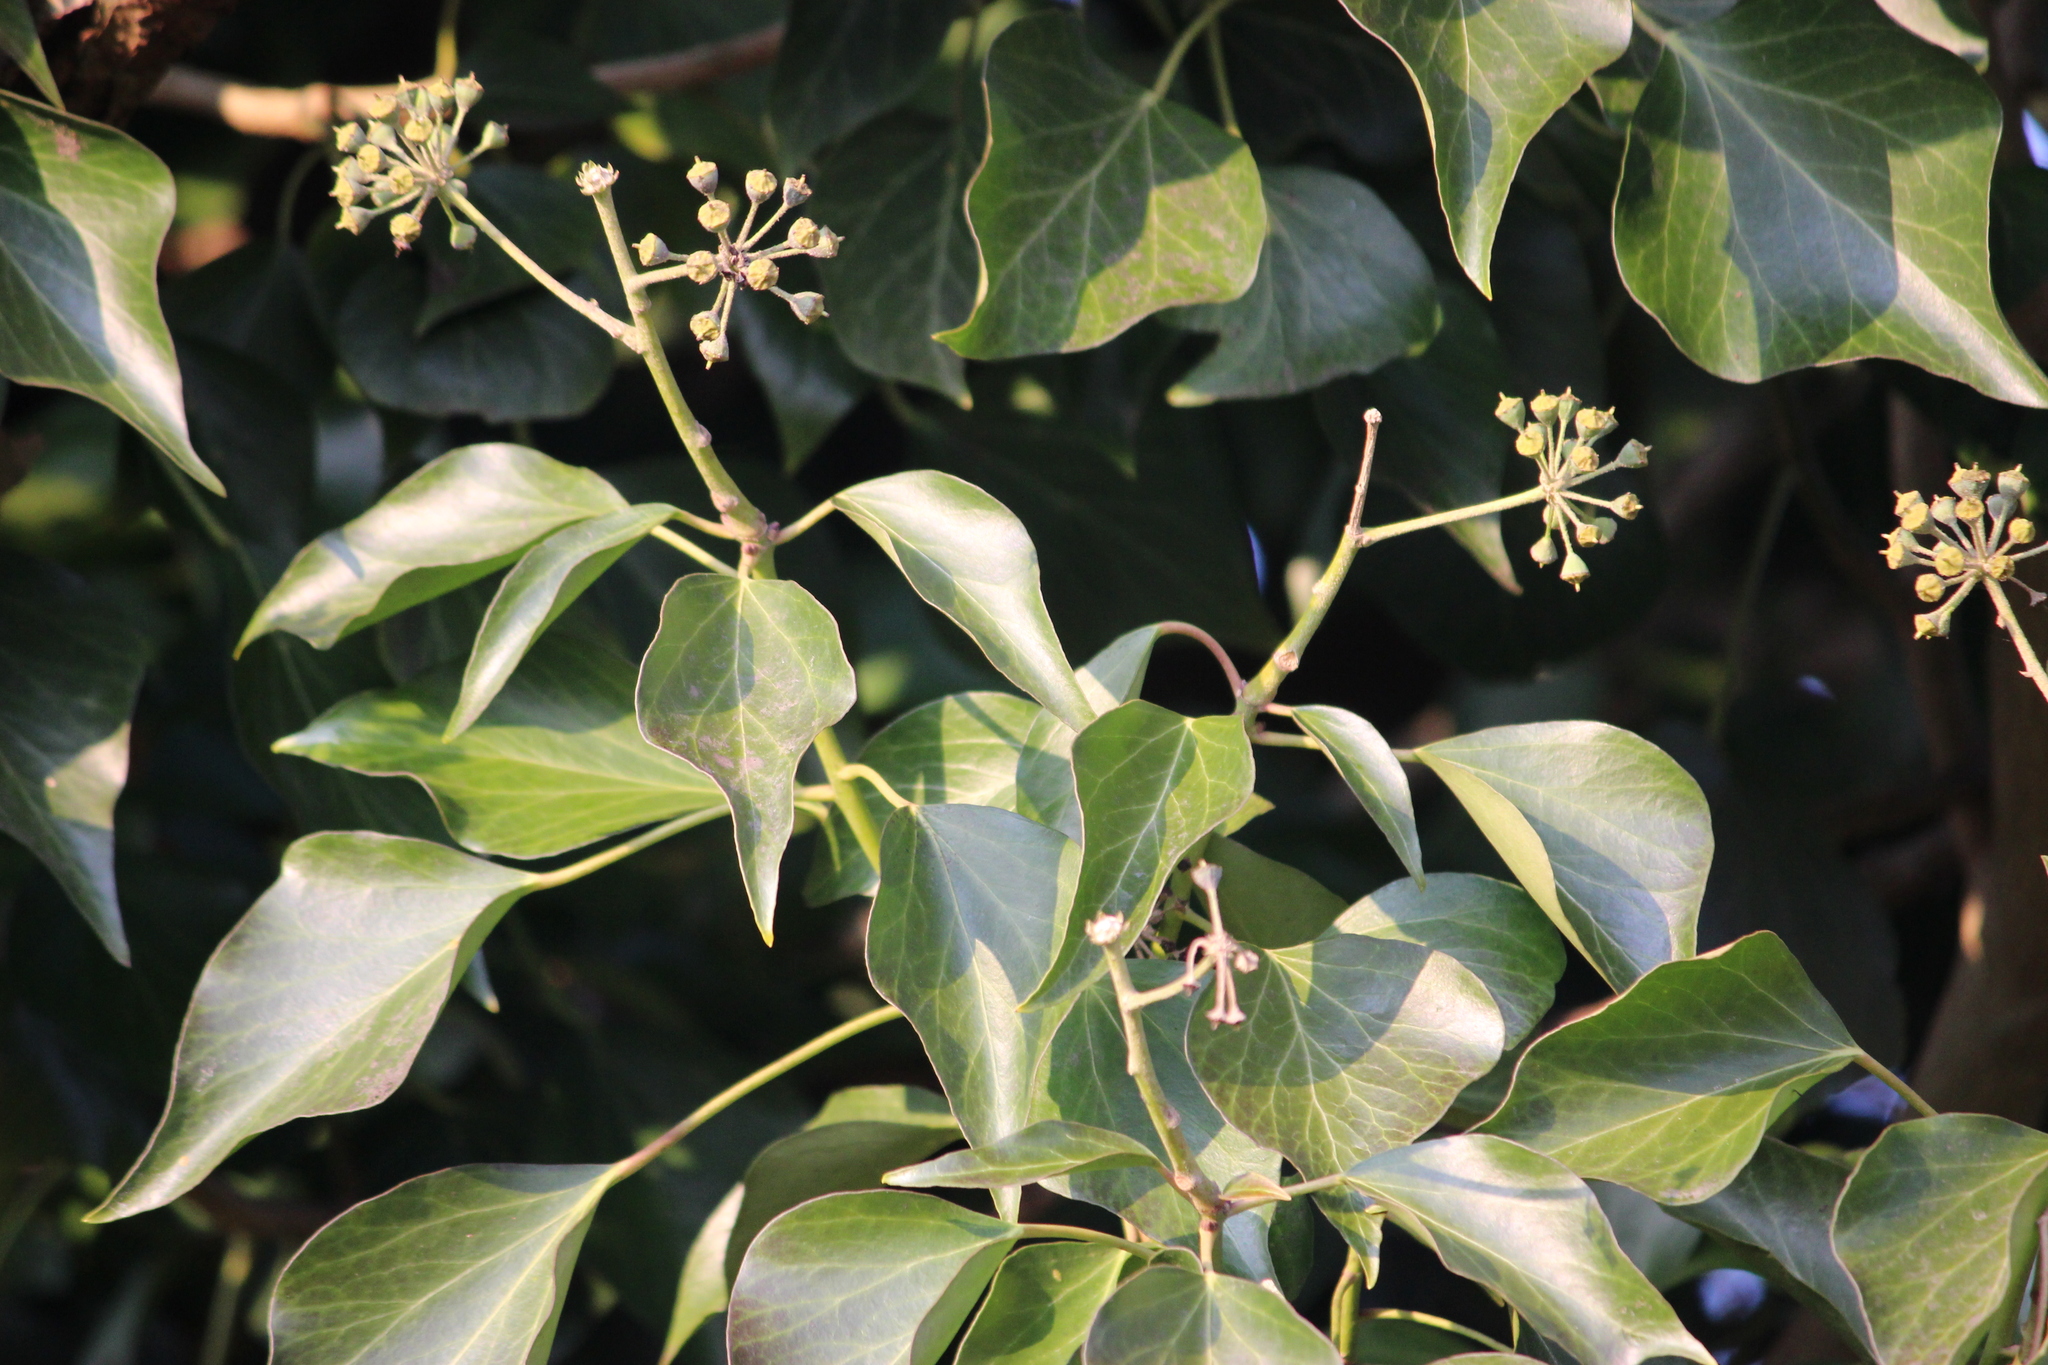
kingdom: Plantae
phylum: Tracheophyta
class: Magnoliopsida
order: Apiales
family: Araliaceae
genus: Hedera
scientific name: Hedera helix
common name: Ivy
